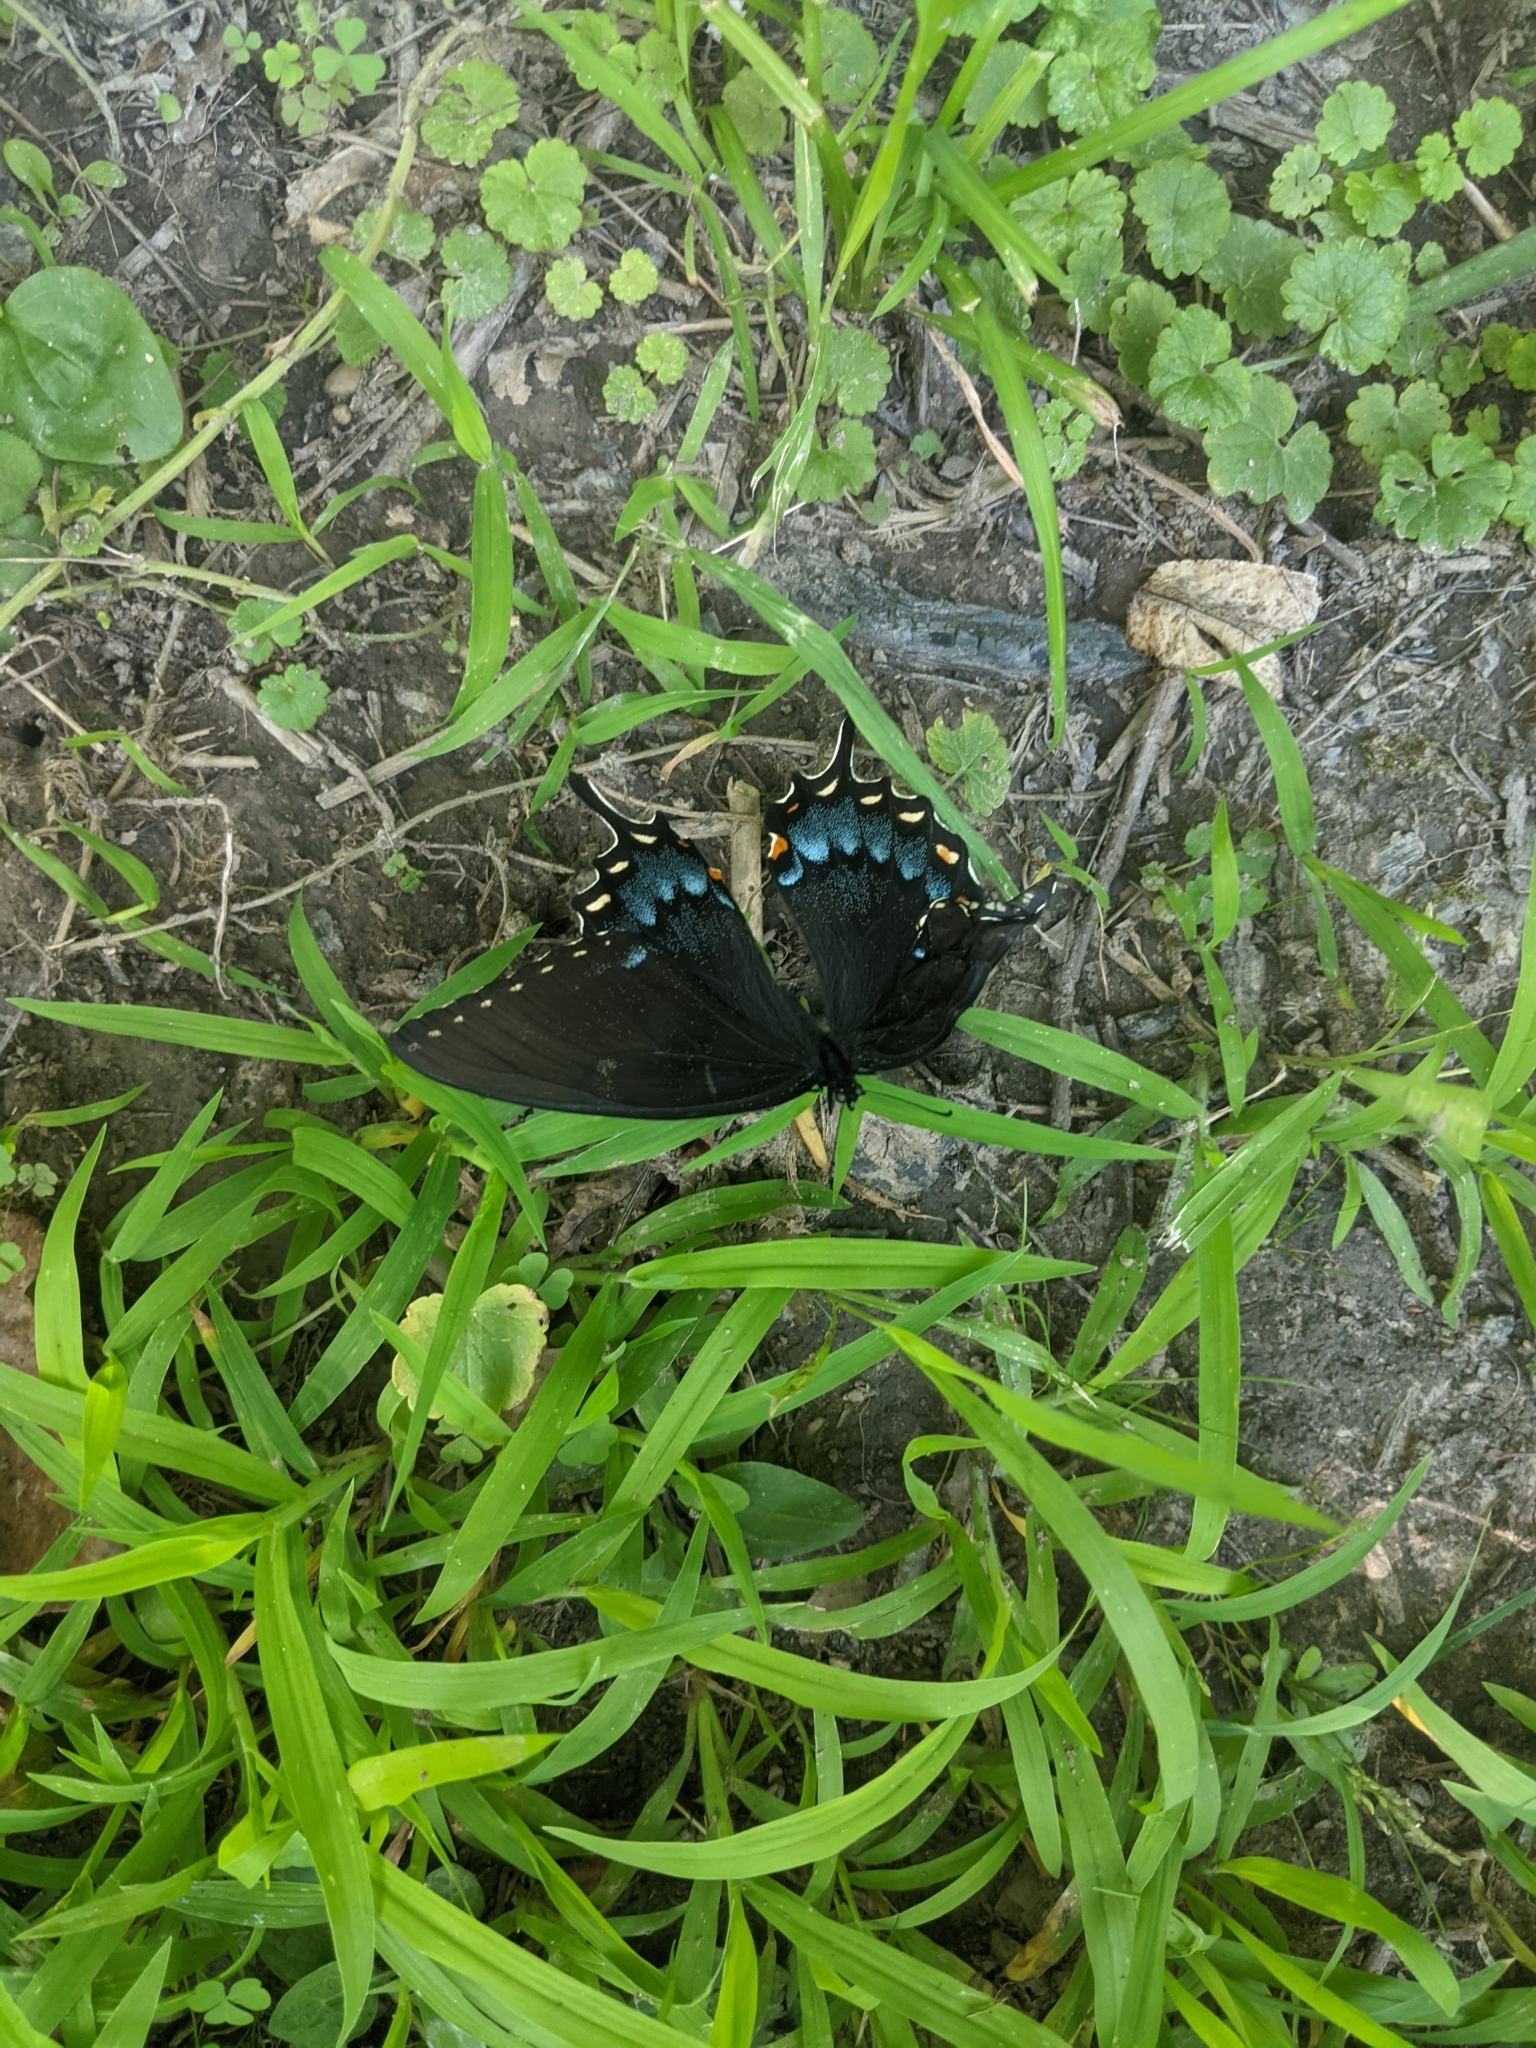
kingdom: Animalia
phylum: Arthropoda
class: Insecta
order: Lepidoptera
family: Papilionidae
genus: Papilio
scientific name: Papilio glaucus
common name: Tiger swallowtail
